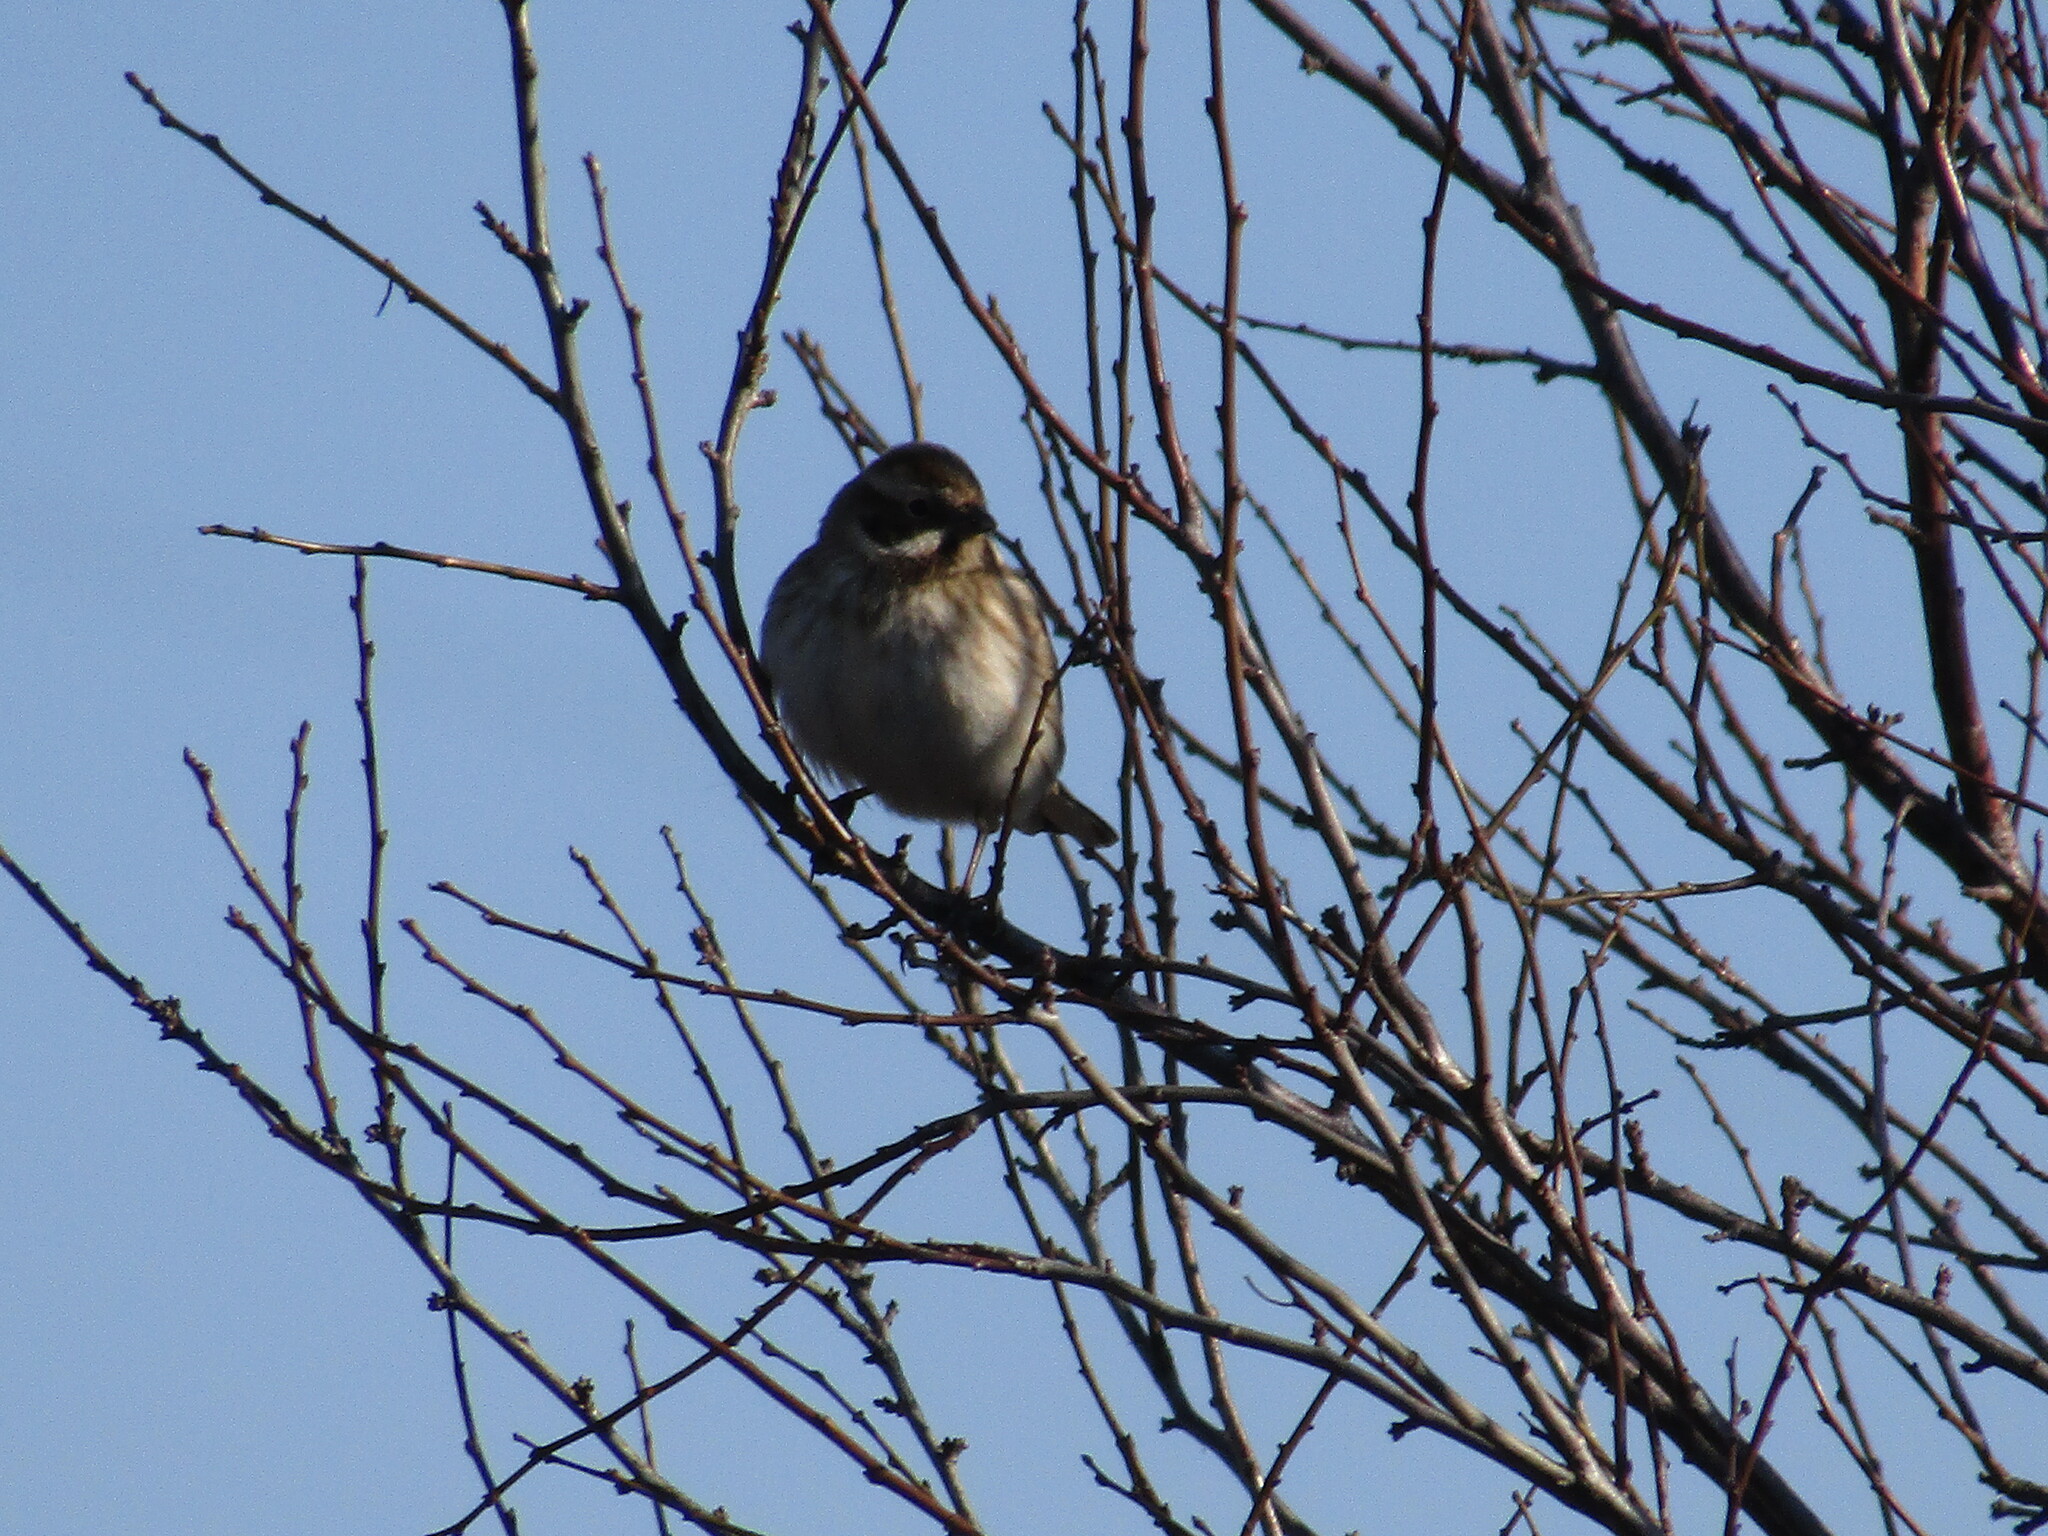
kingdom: Animalia
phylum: Chordata
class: Aves
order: Passeriformes
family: Emberizidae
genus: Emberiza
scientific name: Emberiza schoeniclus
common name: Reed bunting
